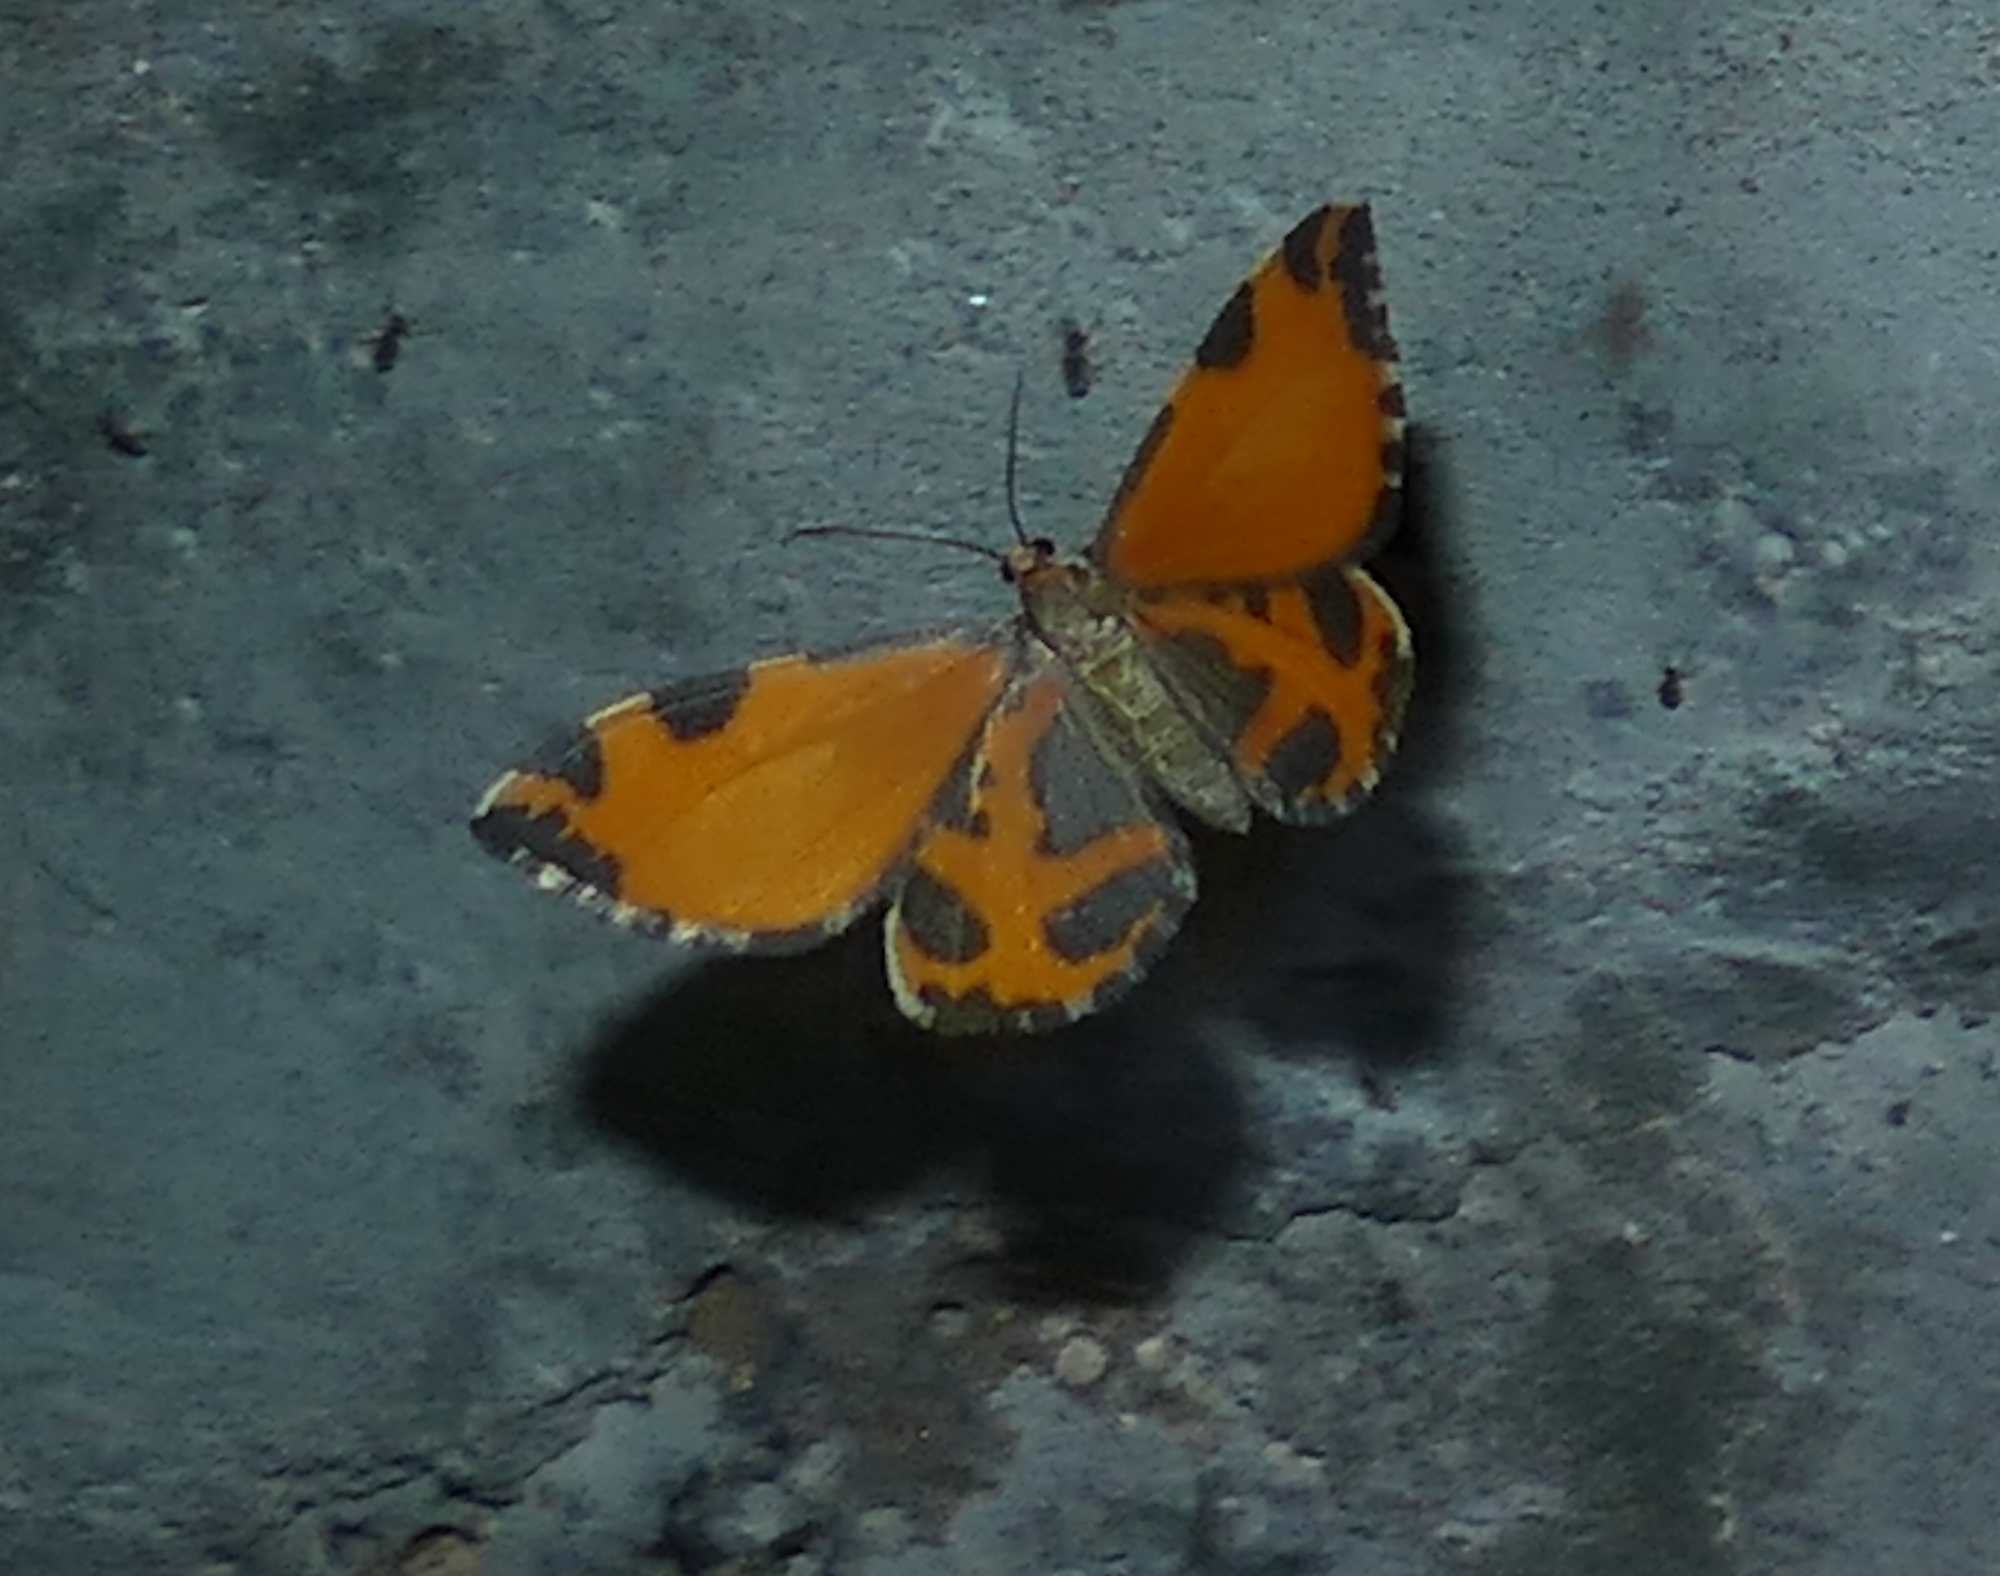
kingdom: Animalia
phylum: Arthropoda
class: Insecta
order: Lepidoptera
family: Geometridae
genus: Stamnodes
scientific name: Stamnodes deceptiva
